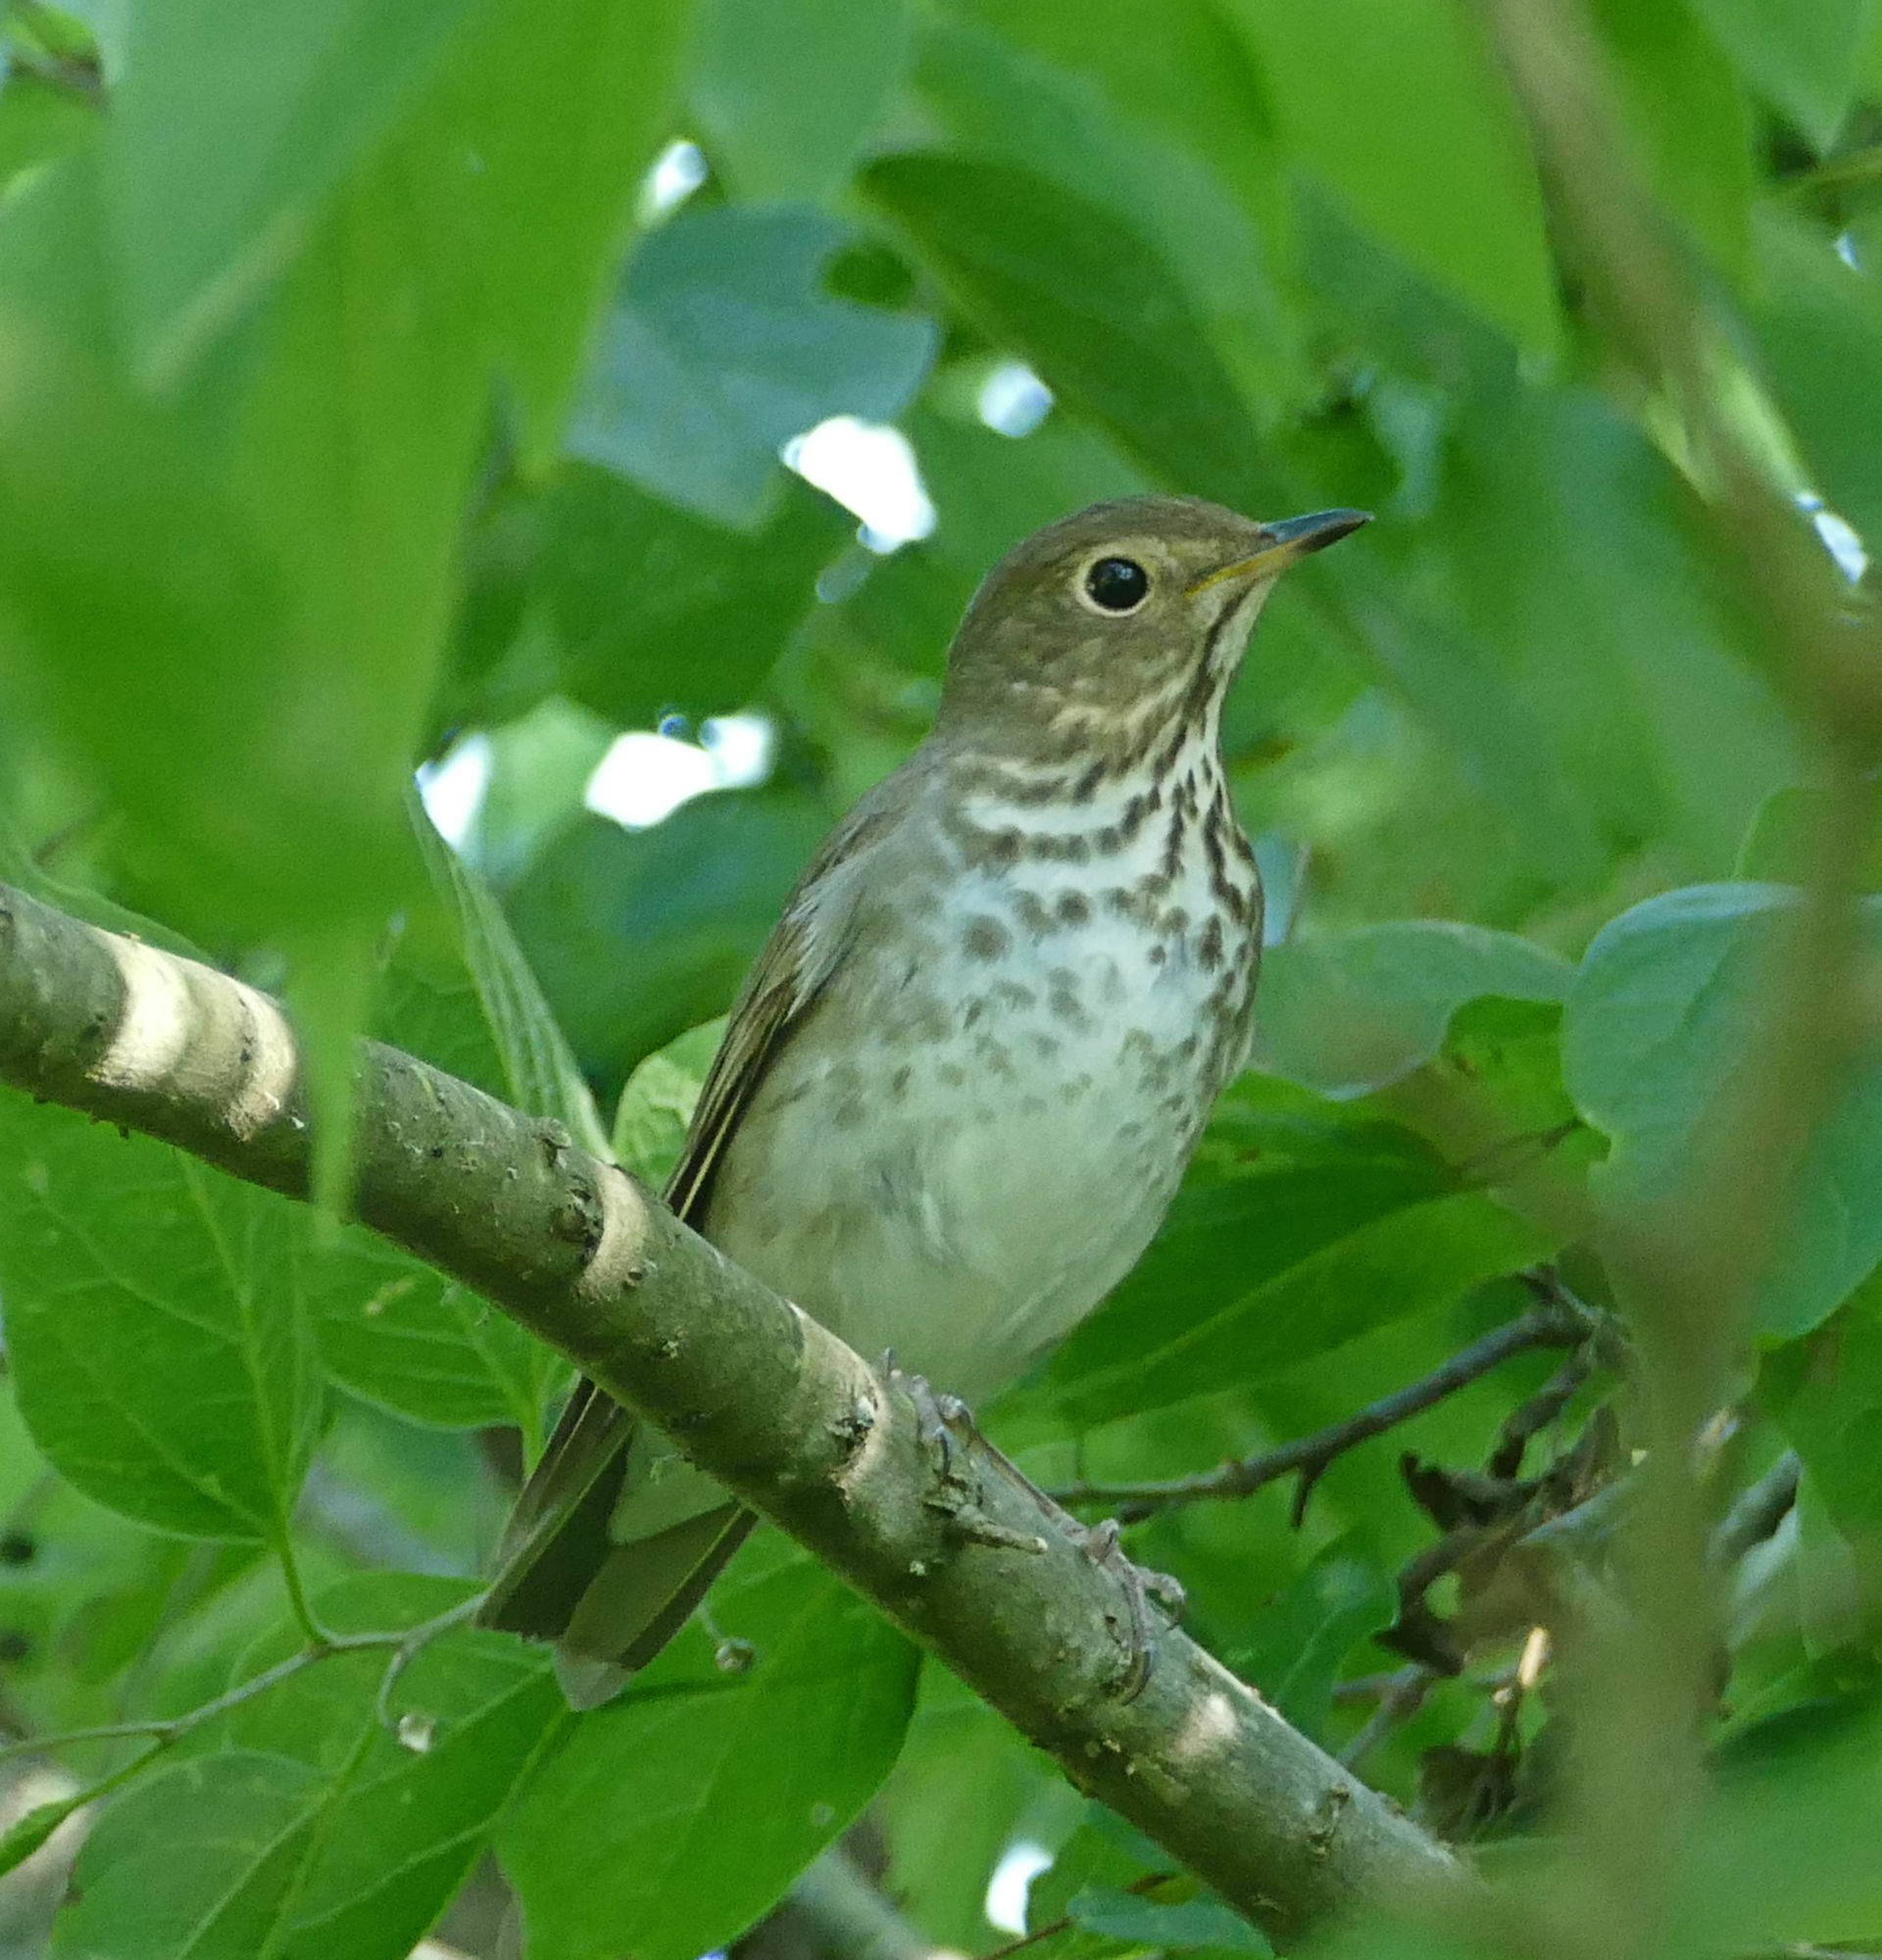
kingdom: Animalia
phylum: Chordata
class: Aves
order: Passeriformes
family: Turdidae
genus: Catharus
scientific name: Catharus ustulatus
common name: Swainson's thrush
